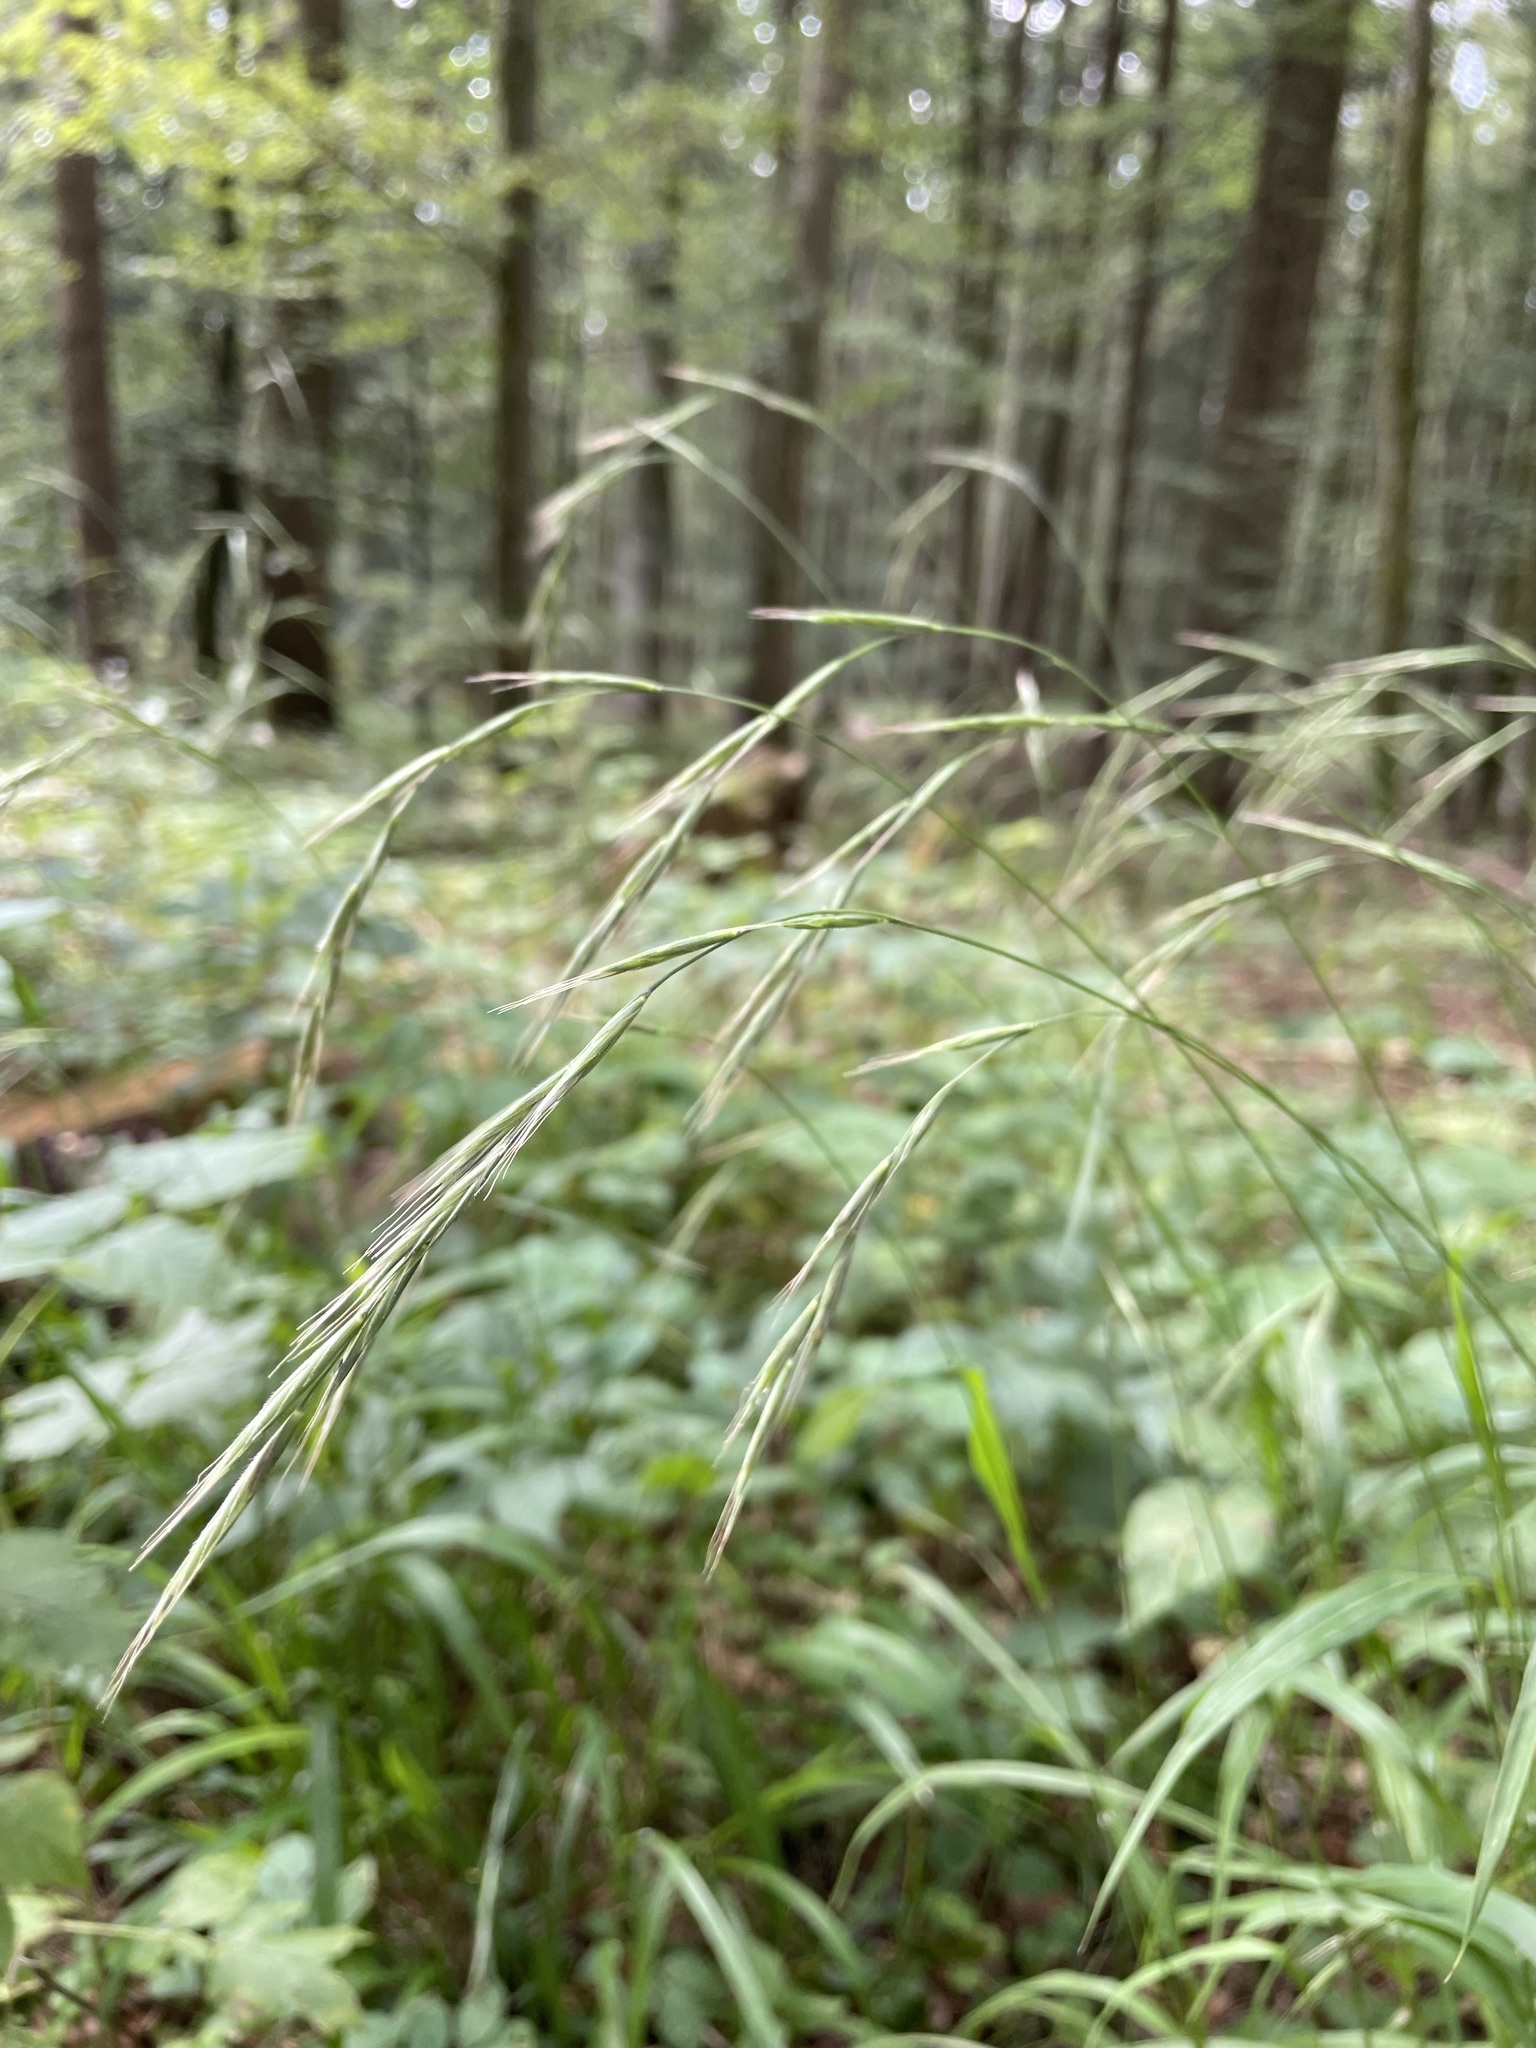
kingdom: Plantae
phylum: Tracheophyta
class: Liliopsida
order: Poales
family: Poaceae
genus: Brachypodium
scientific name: Brachypodium sylvaticum
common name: False-brome
